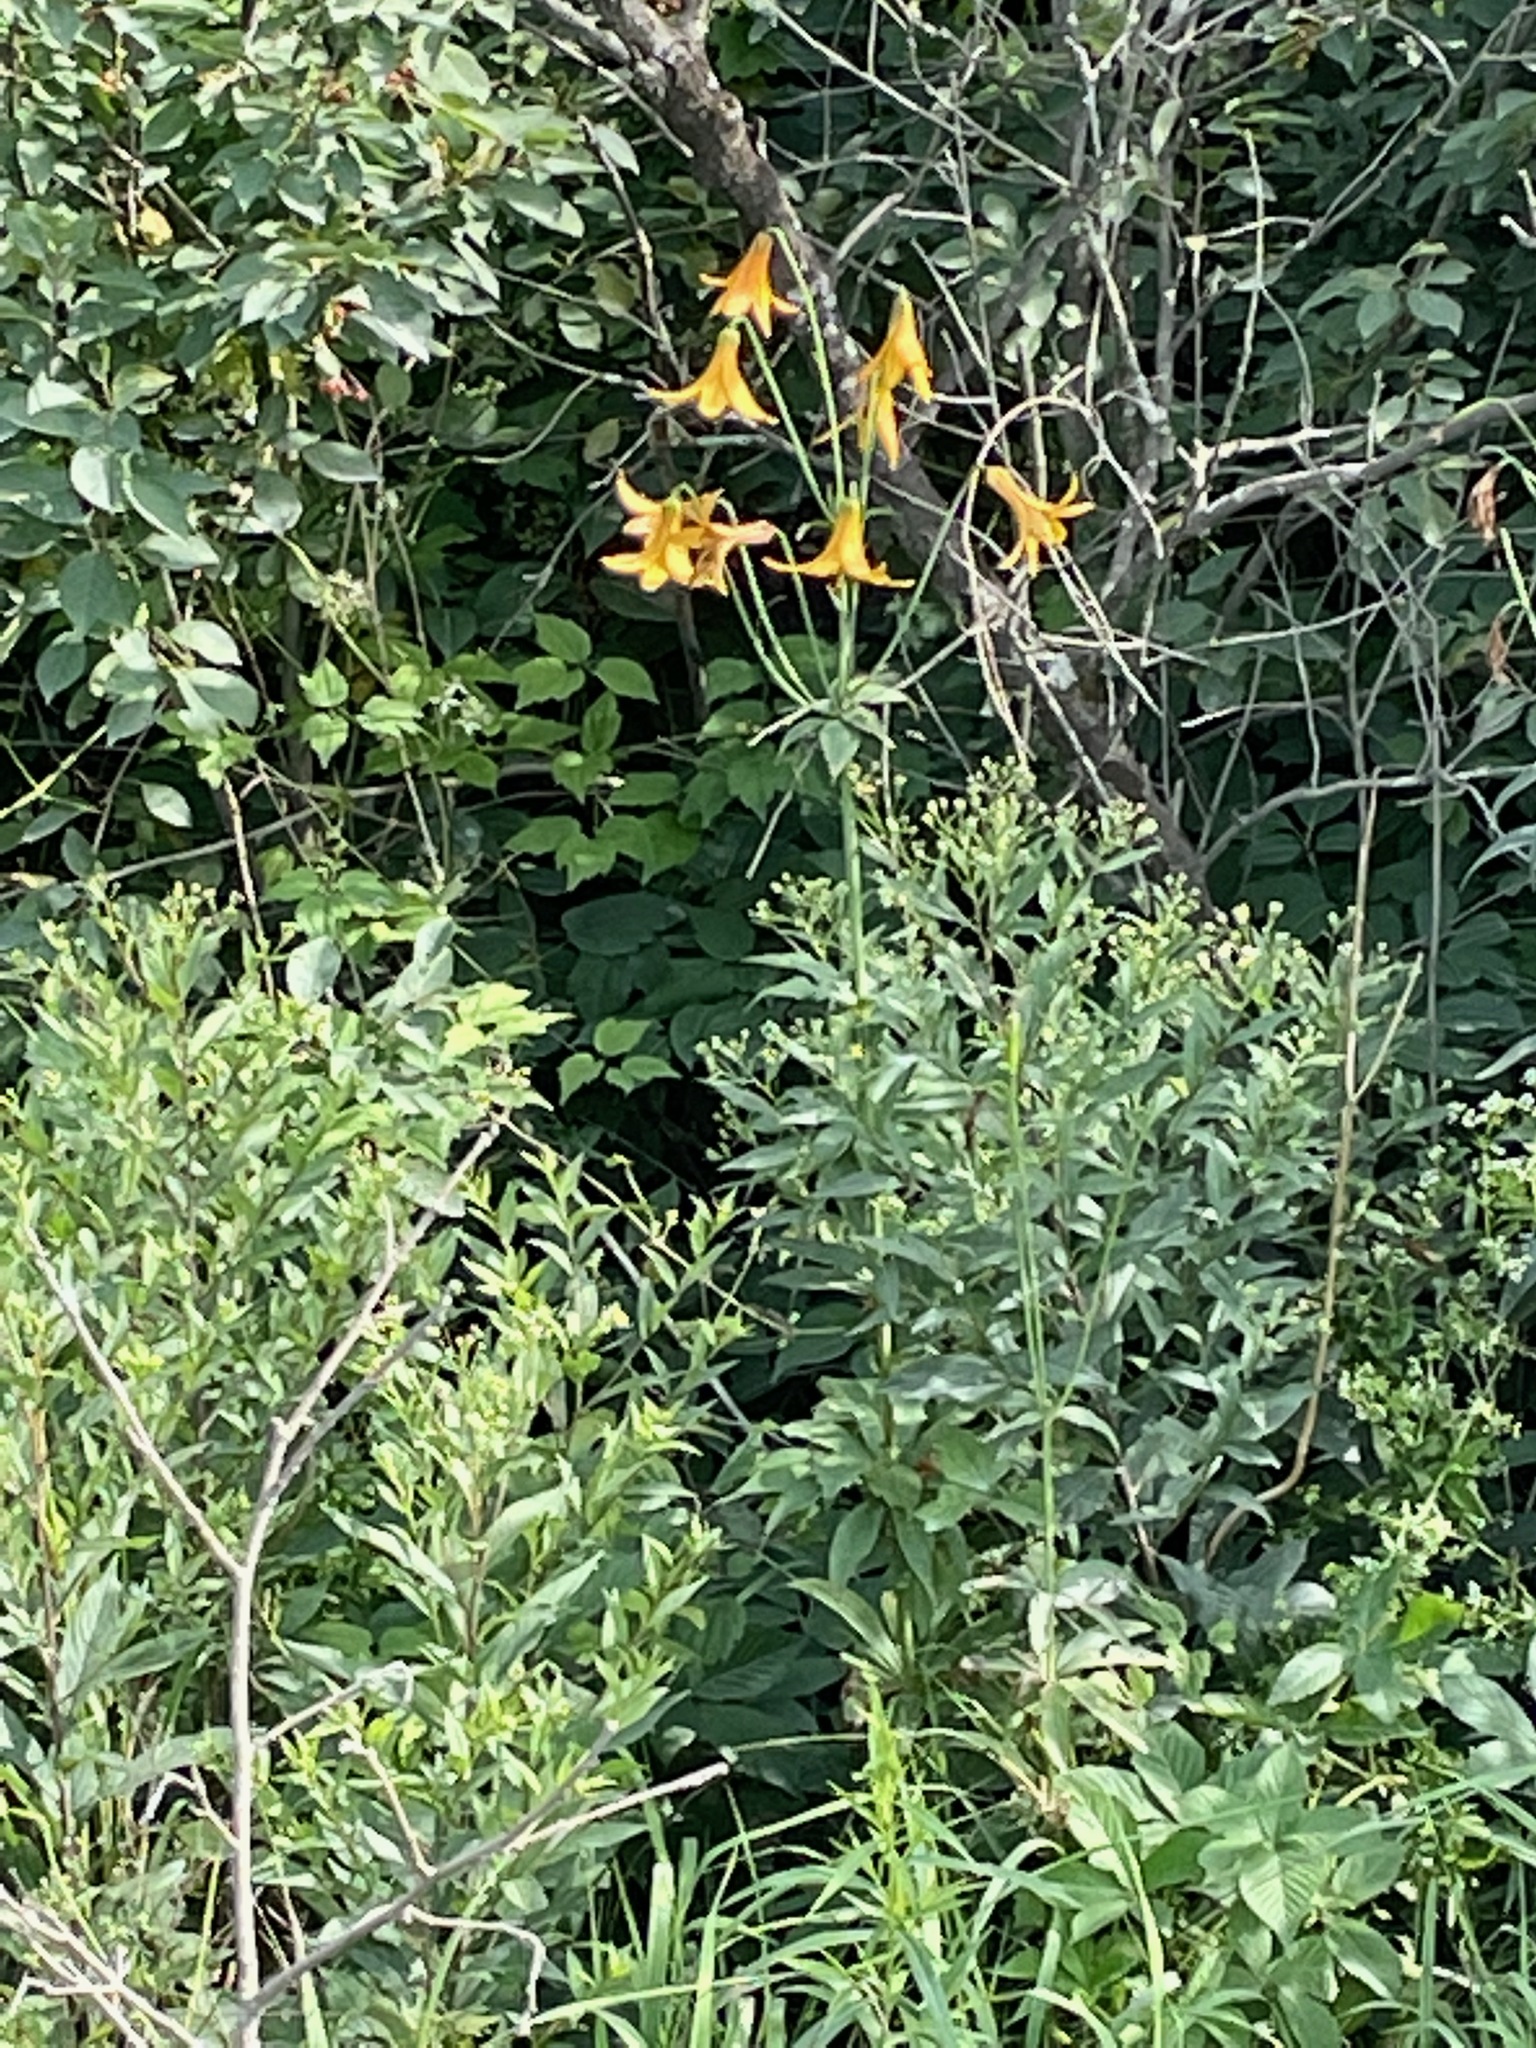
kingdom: Plantae
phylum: Tracheophyta
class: Liliopsida
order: Liliales
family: Liliaceae
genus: Lilium
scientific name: Lilium canadense
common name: Canada lily
